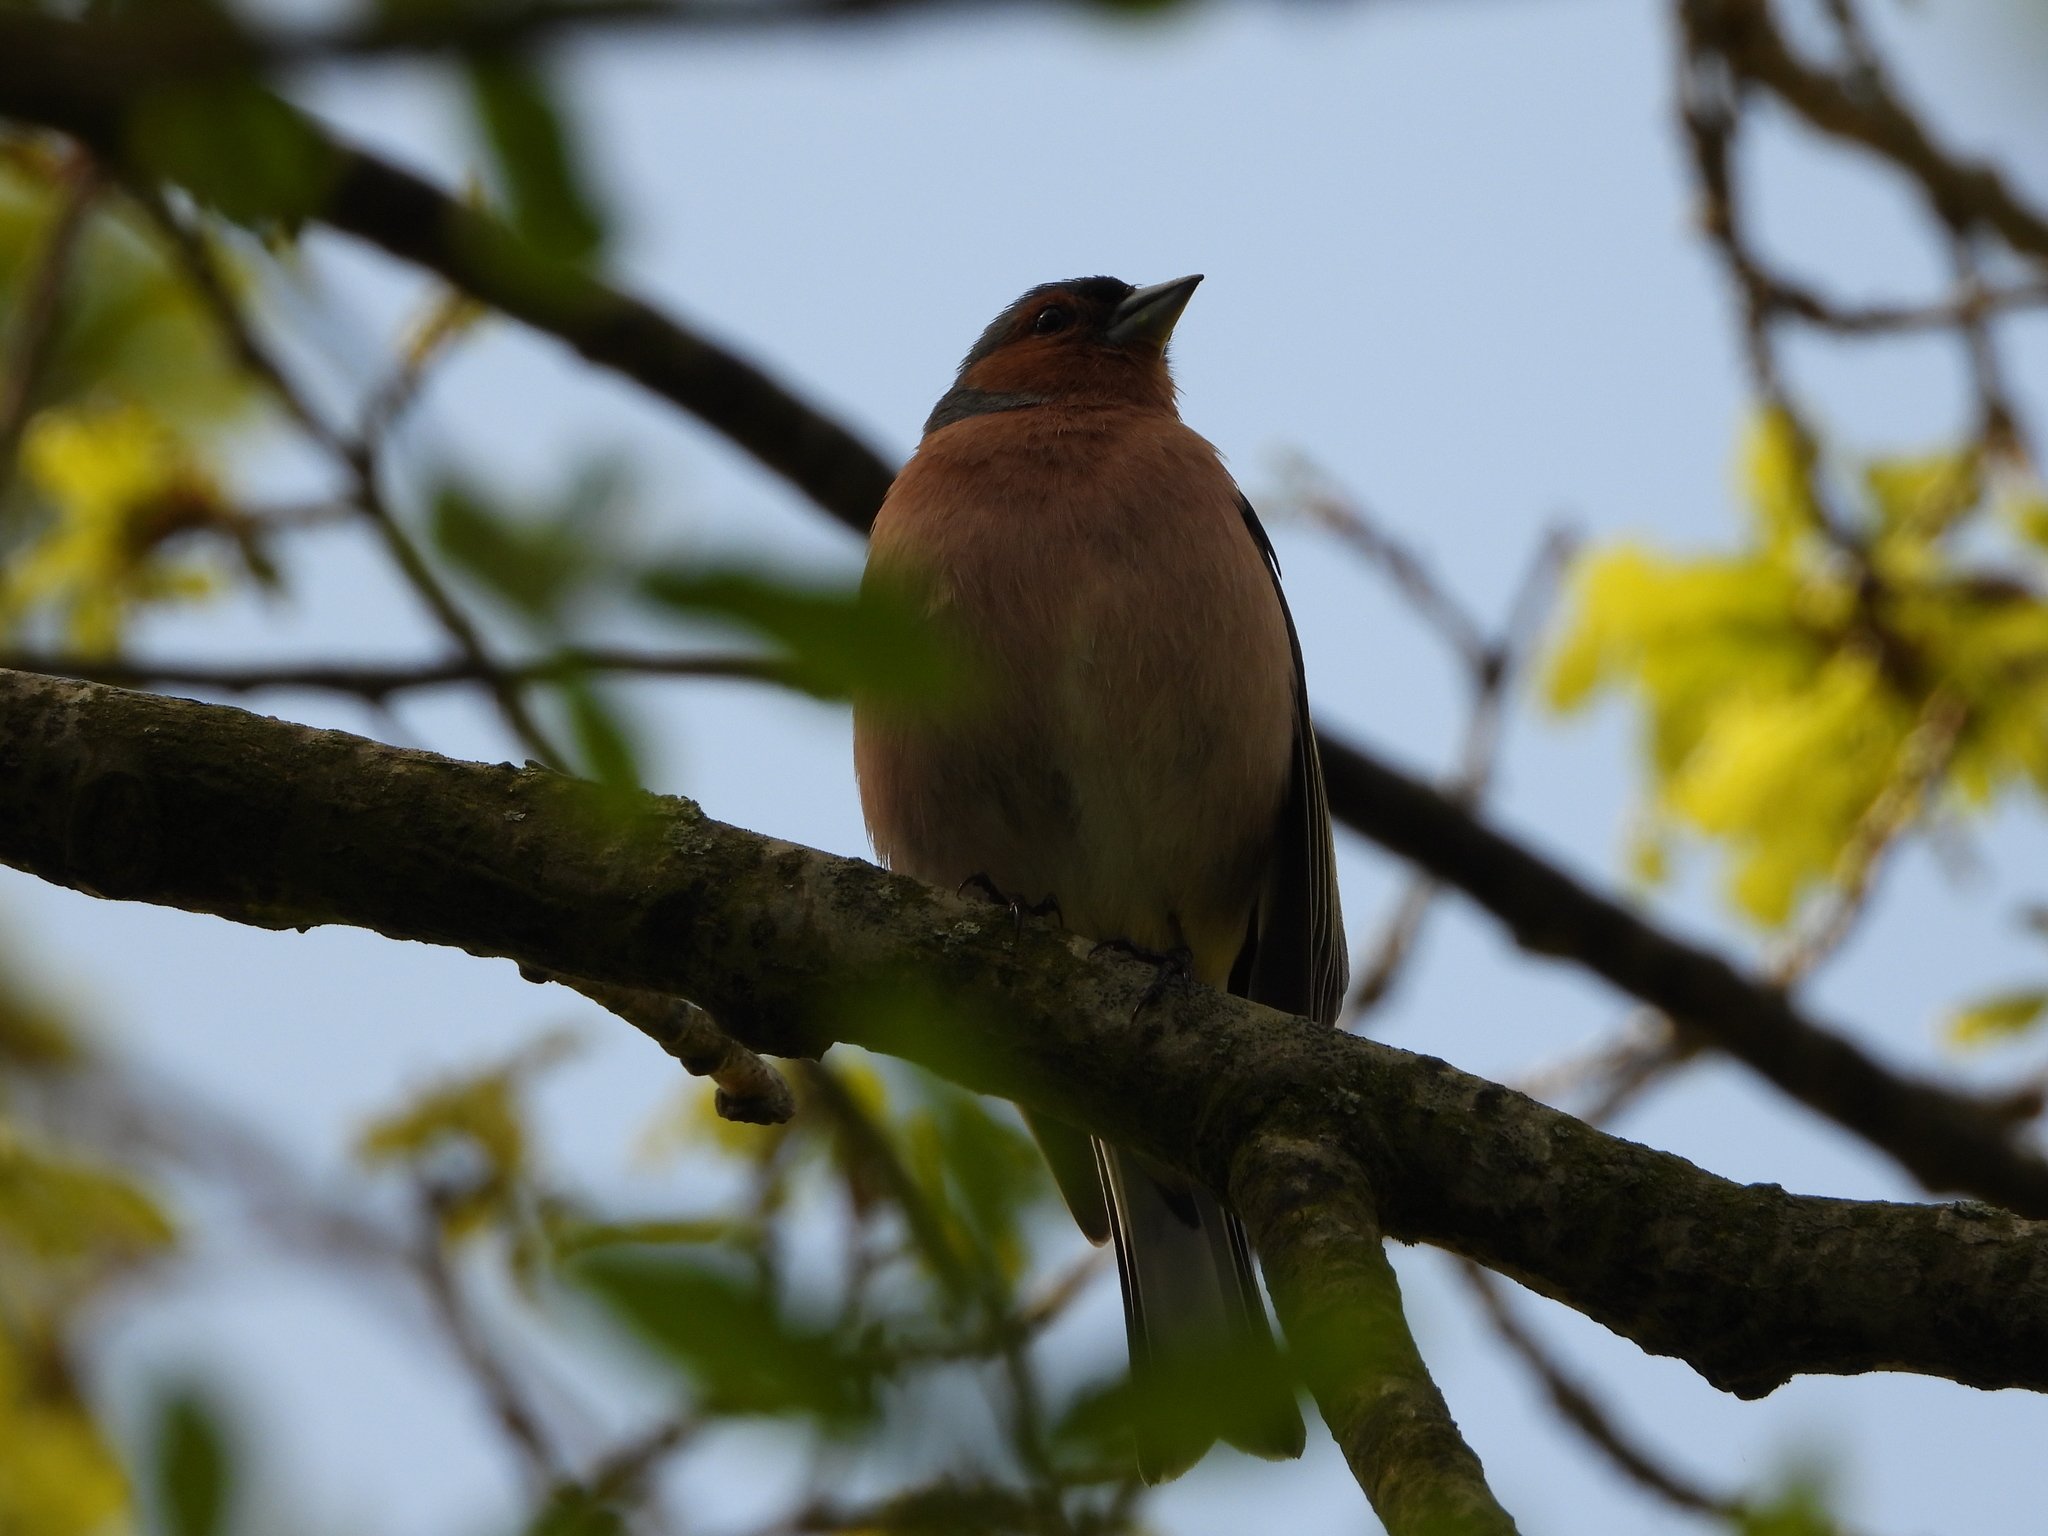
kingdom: Animalia
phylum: Chordata
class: Aves
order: Passeriformes
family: Fringillidae
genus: Fringilla
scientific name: Fringilla coelebs
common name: Common chaffinch
